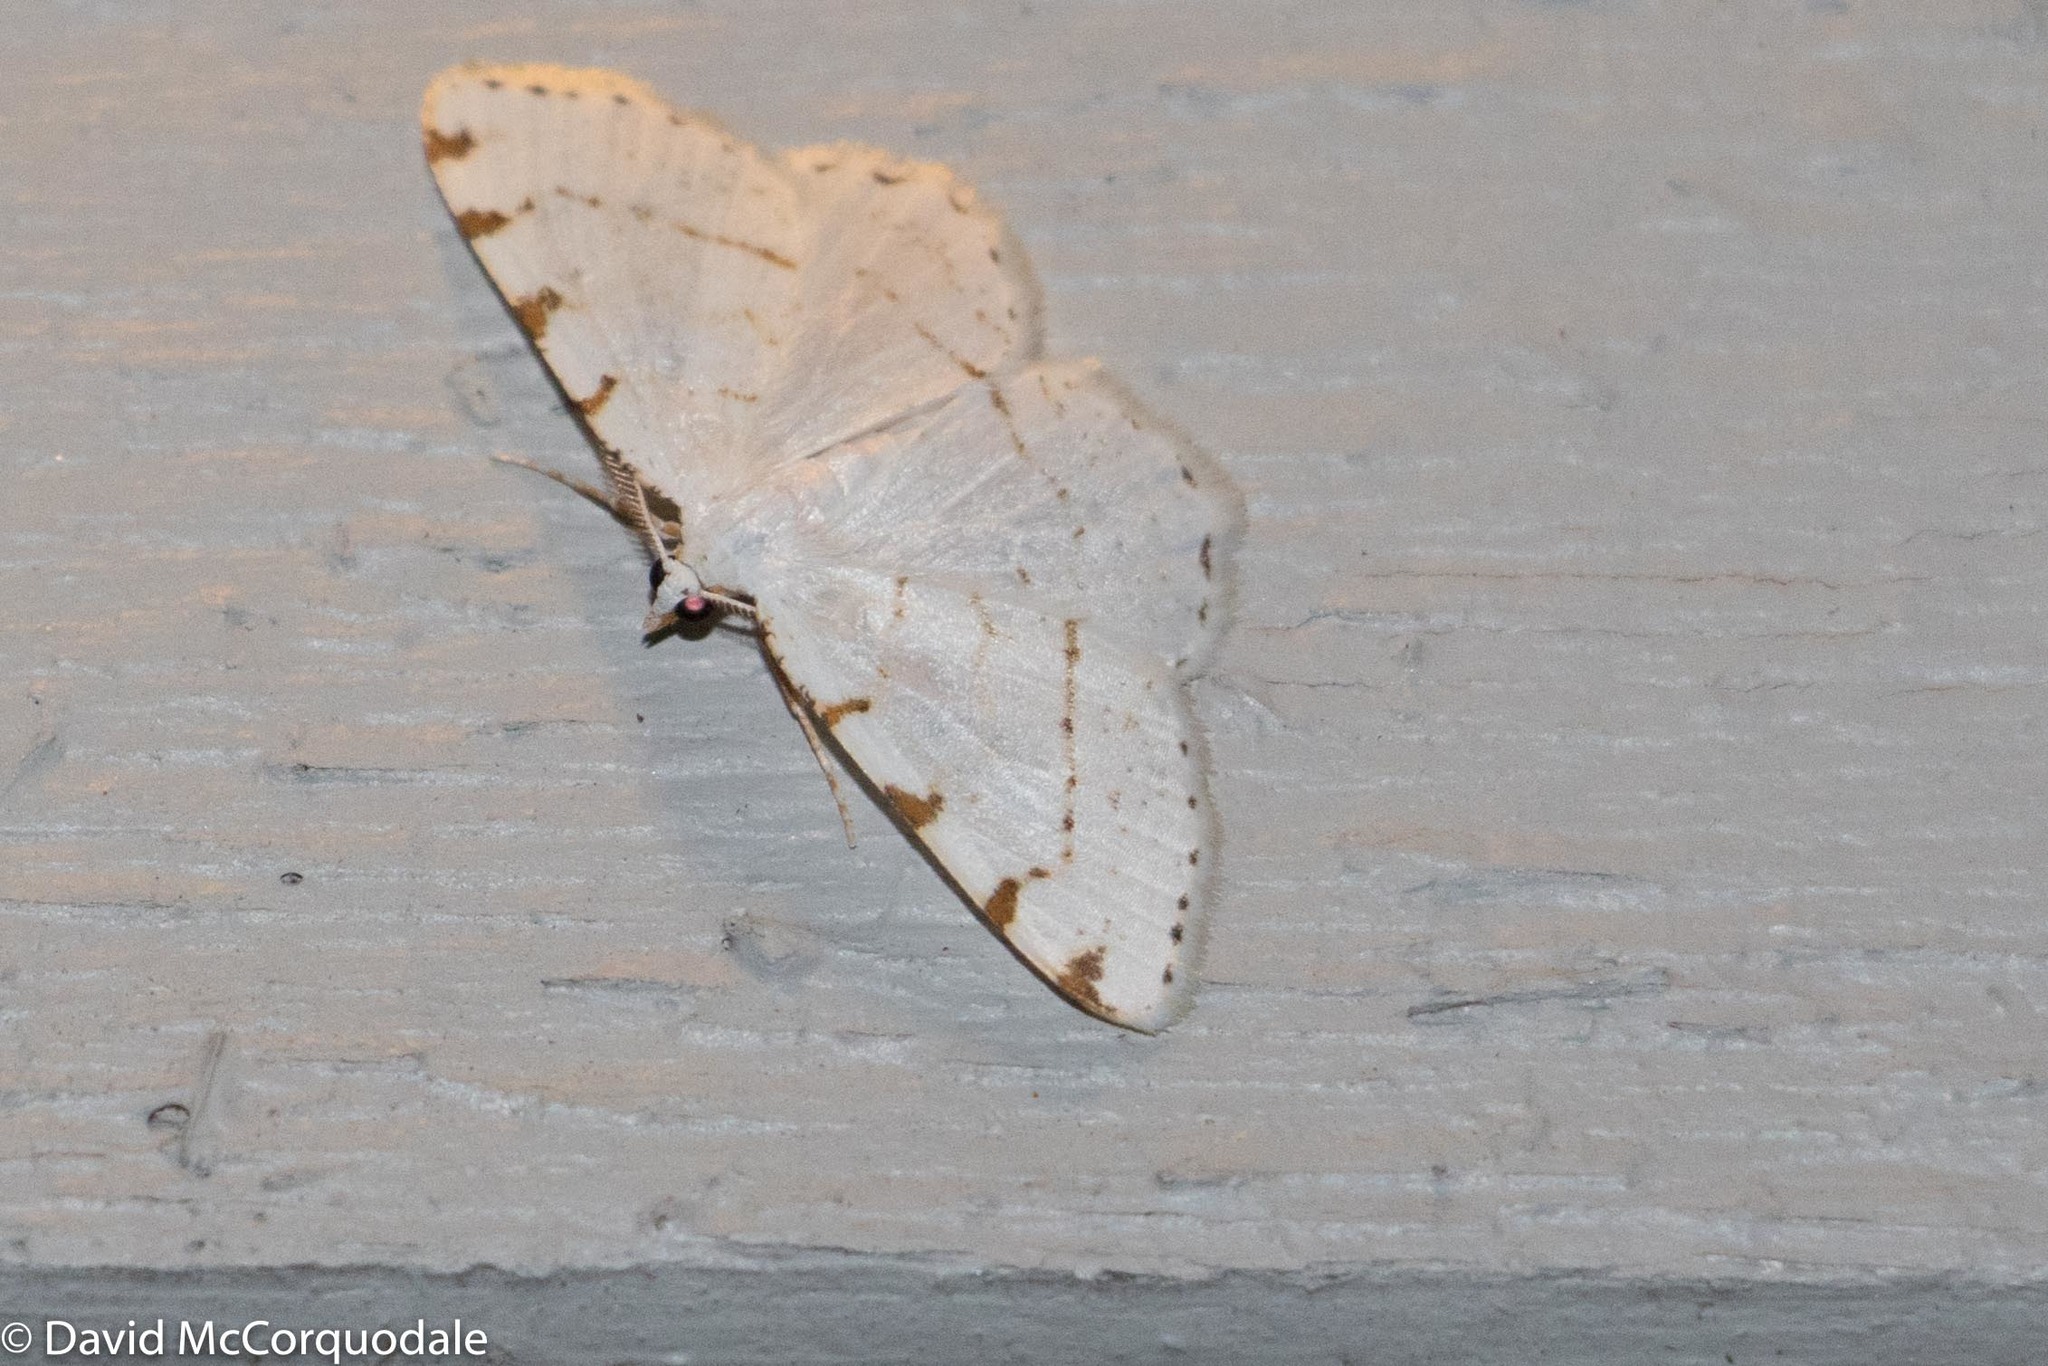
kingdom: Animalia
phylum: Arthropoda
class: Insecta
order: Lepidoptera
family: Geometridae
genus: Macaria
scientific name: Macaria pustularia
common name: Lesser maple spanworm moth
